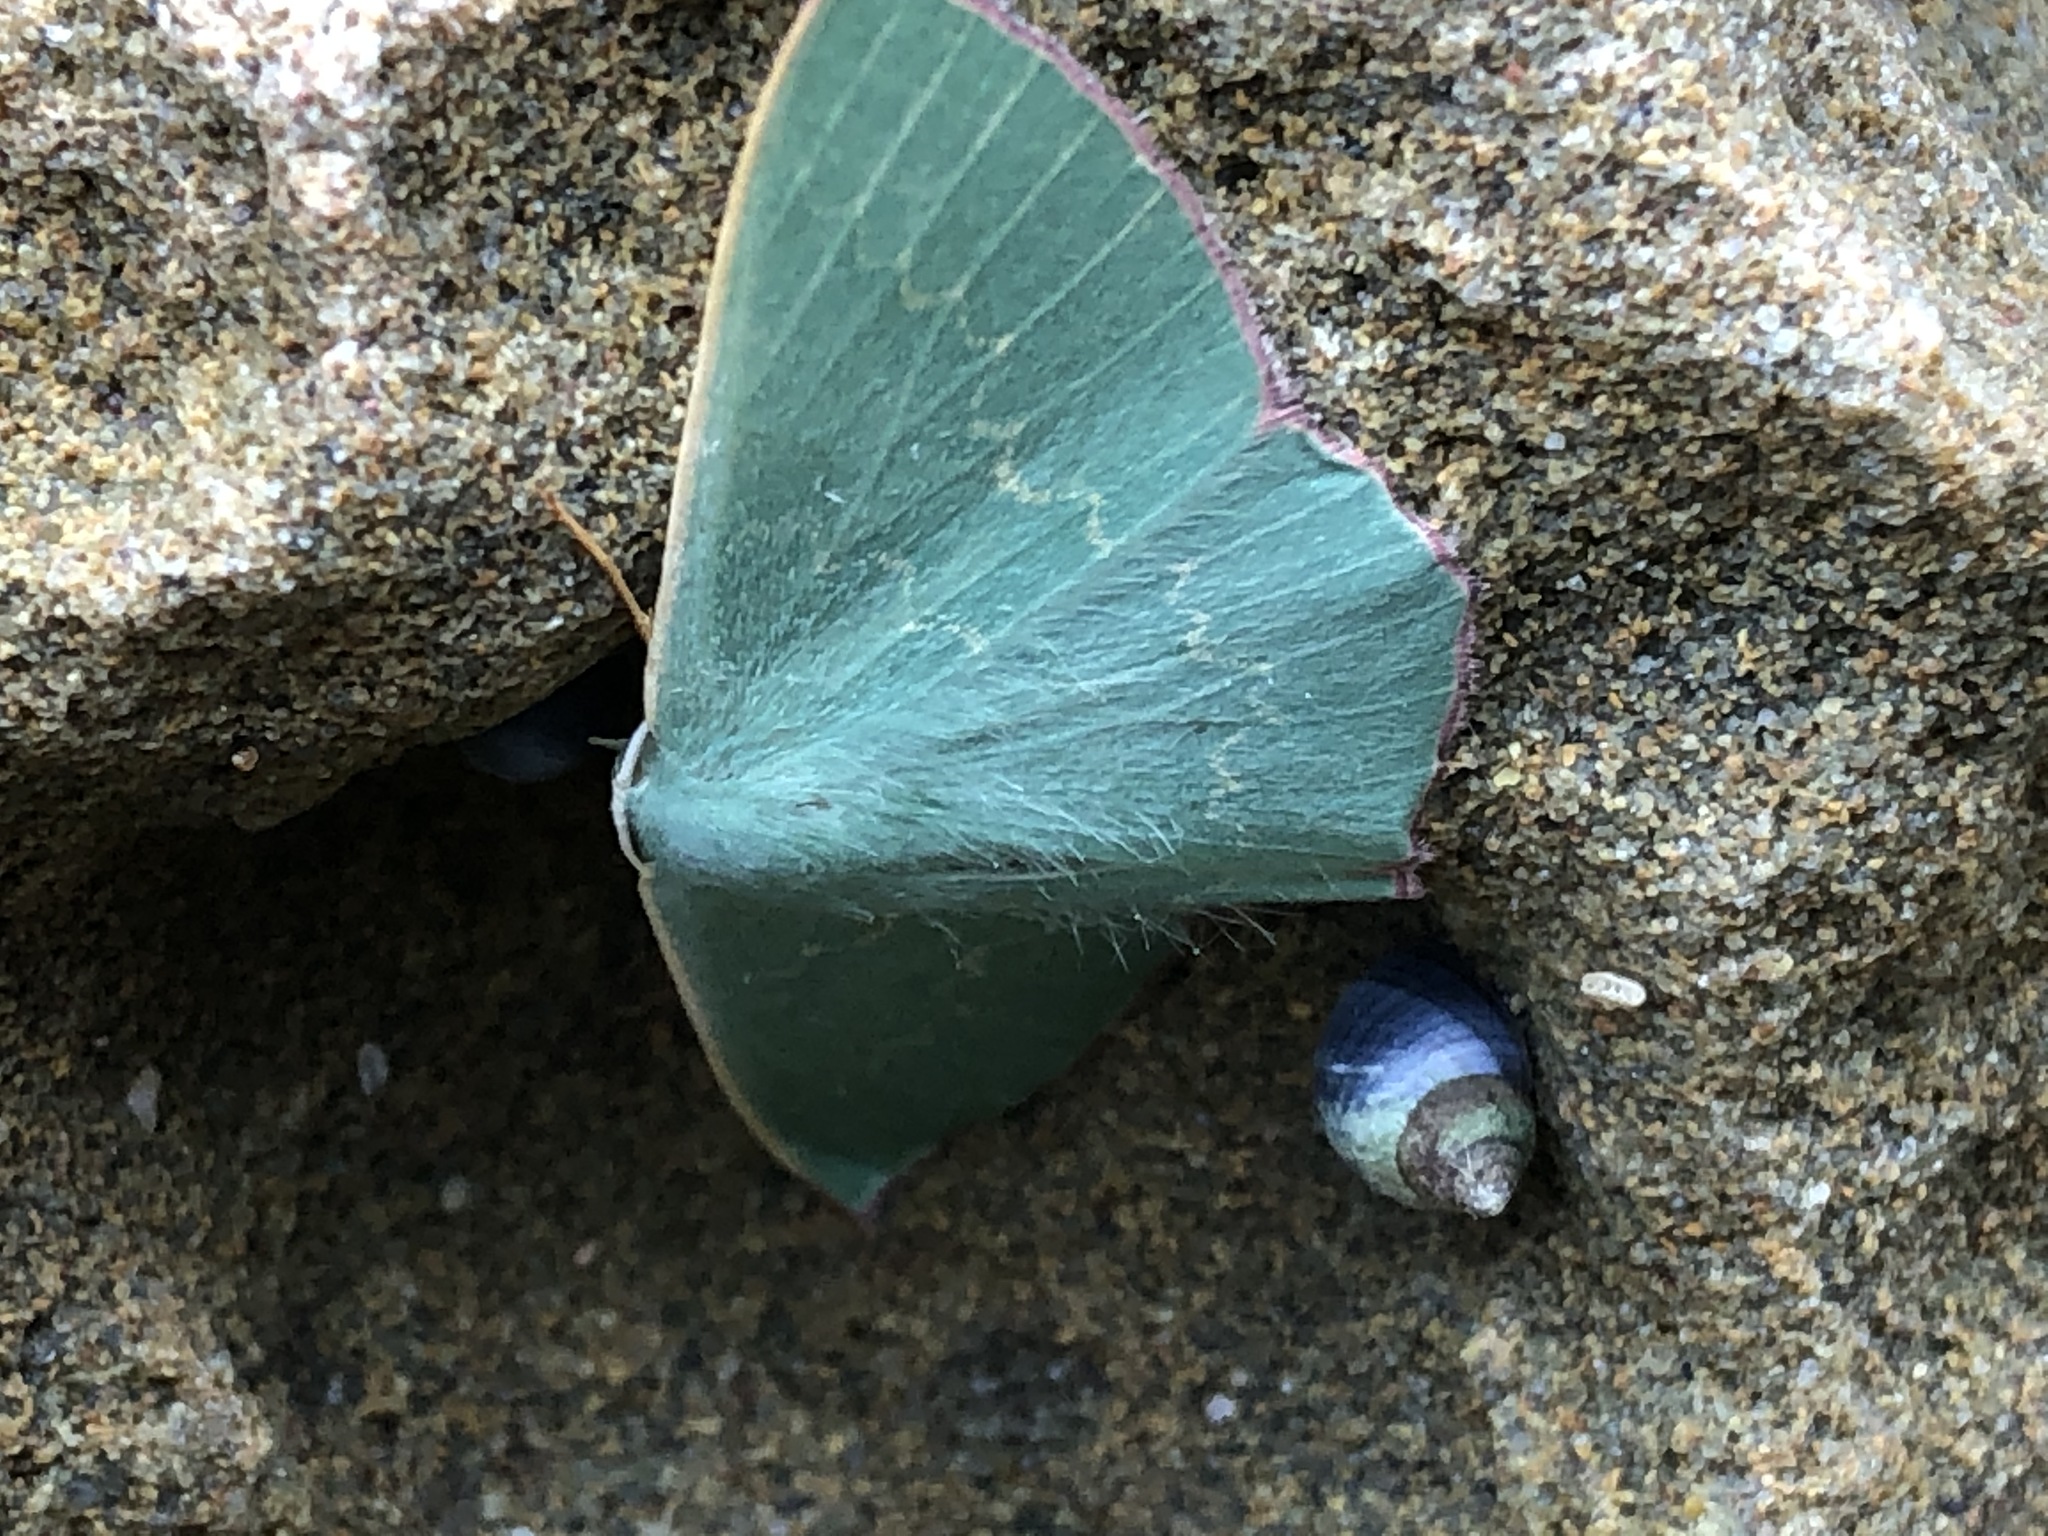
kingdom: Animalia
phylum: Arthropoda
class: Insecta
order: Lepidoptera
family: Geometridae
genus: Prasinocyma
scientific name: Prasinocyma semicrocea
